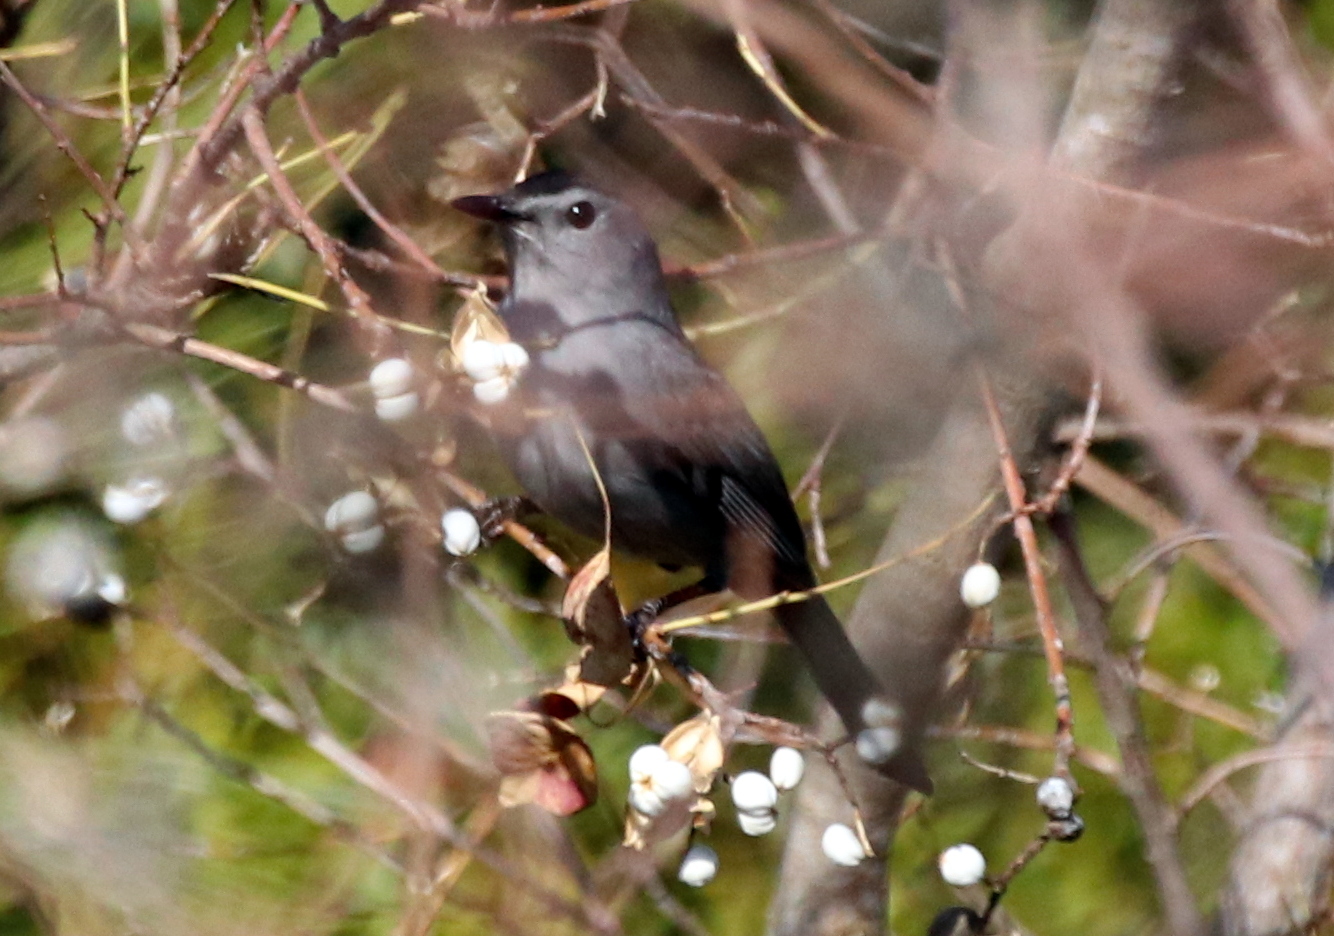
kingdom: Animalia
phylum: Chordata
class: Aves
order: Passeriformes
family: Mimidae
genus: Dumetella
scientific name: Dumetella carolinensis
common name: Gray catbird
